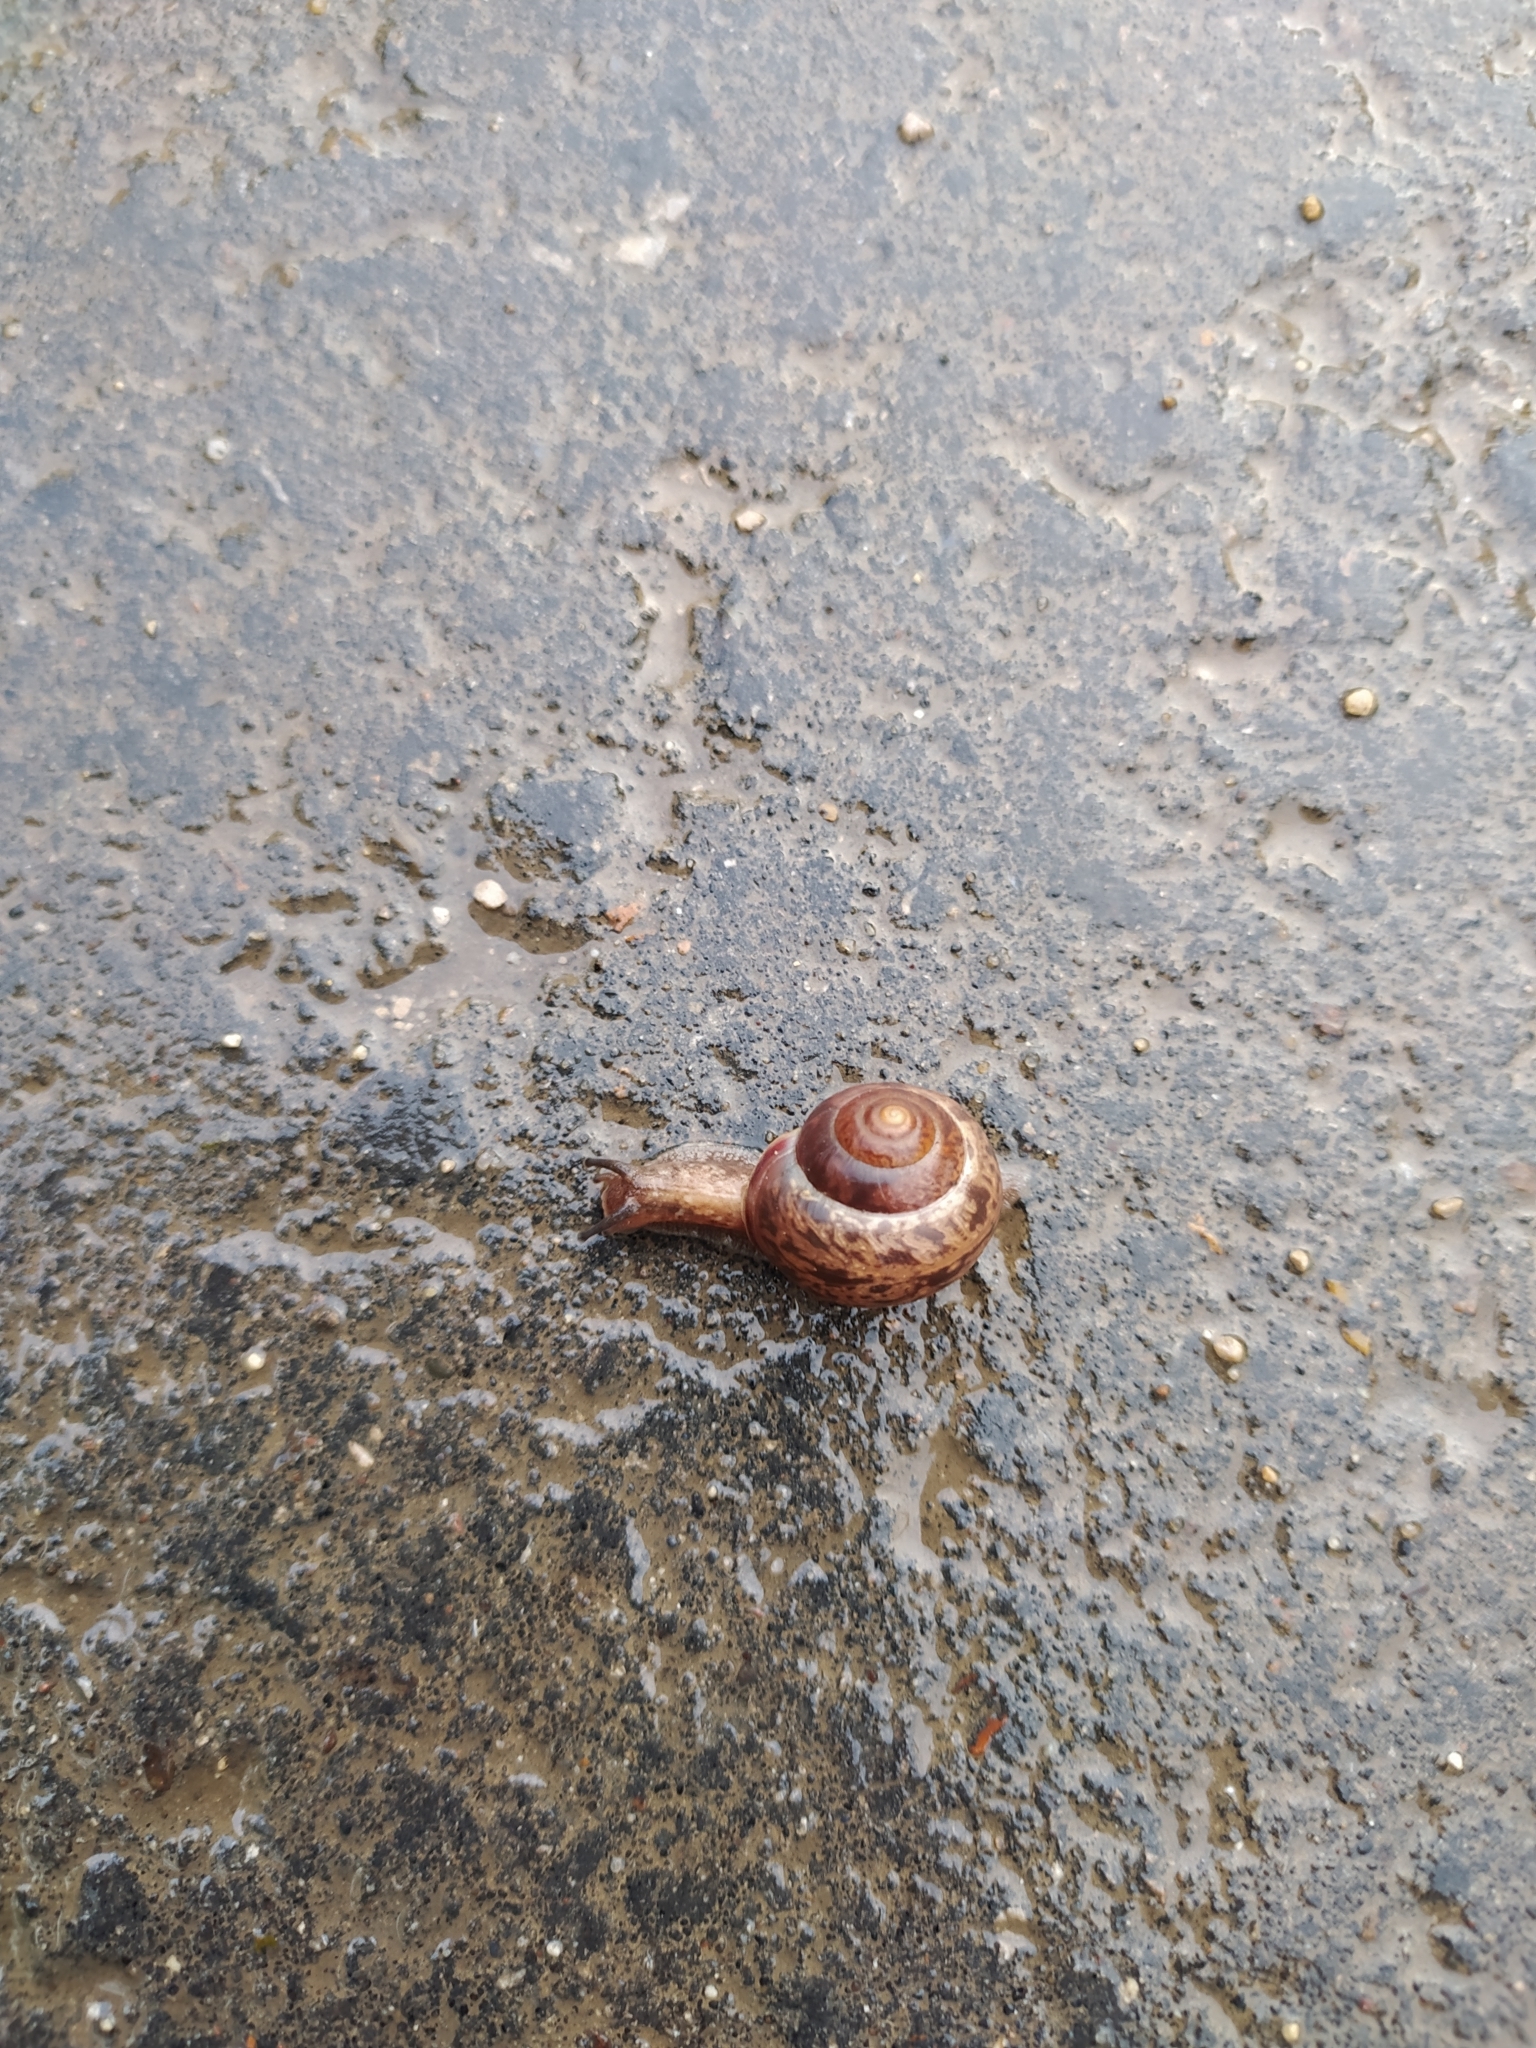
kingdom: Animalia
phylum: Mollusca
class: Gastropoda
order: Stylommatophora
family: Camaenidae
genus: Fruticicola
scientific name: Fruticicola fruticum
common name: Bush snail
